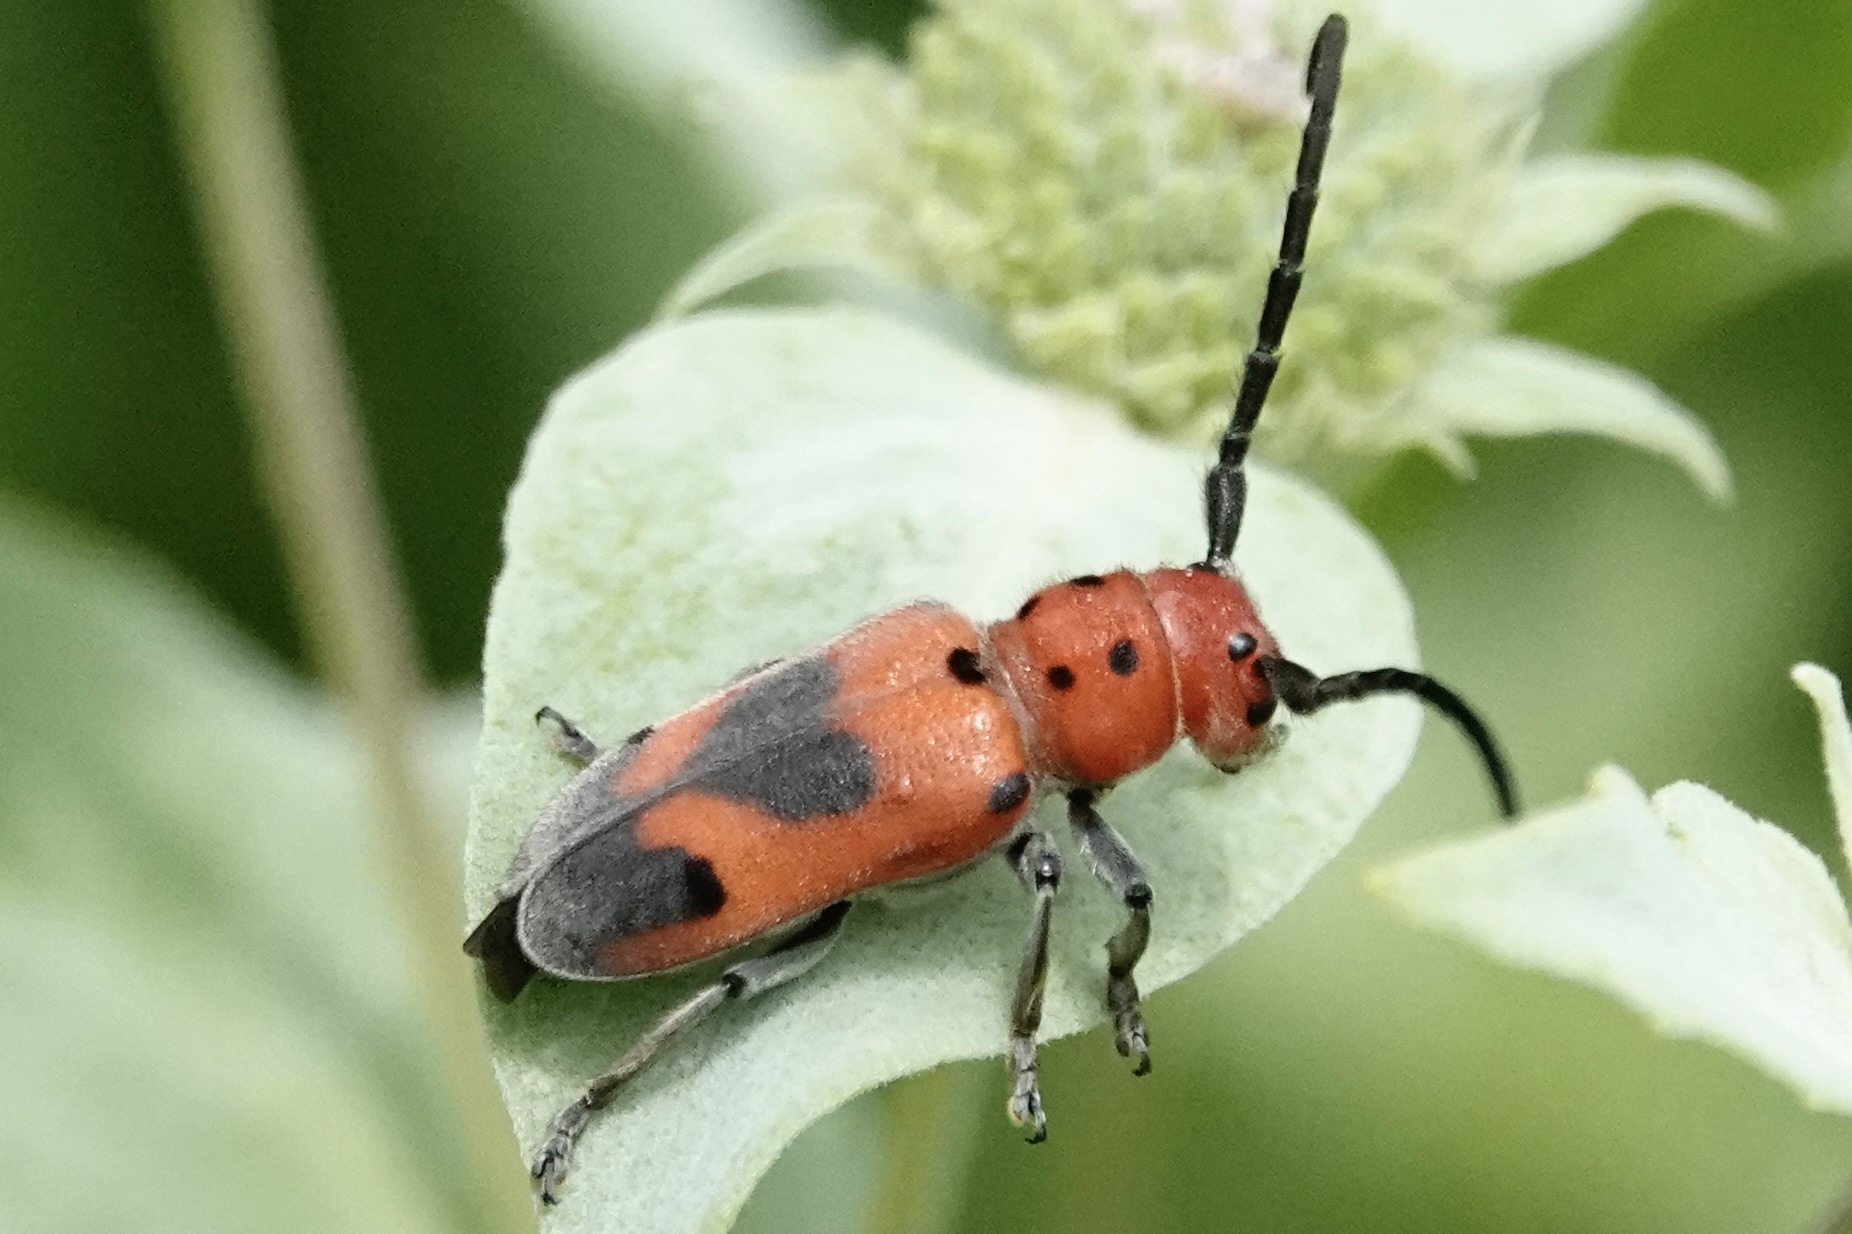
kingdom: Animalia
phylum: Arthropoda
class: Insecta
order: Coleoptera
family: Cerambycidae
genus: Tetraopes
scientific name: Tetraopes melanurus
